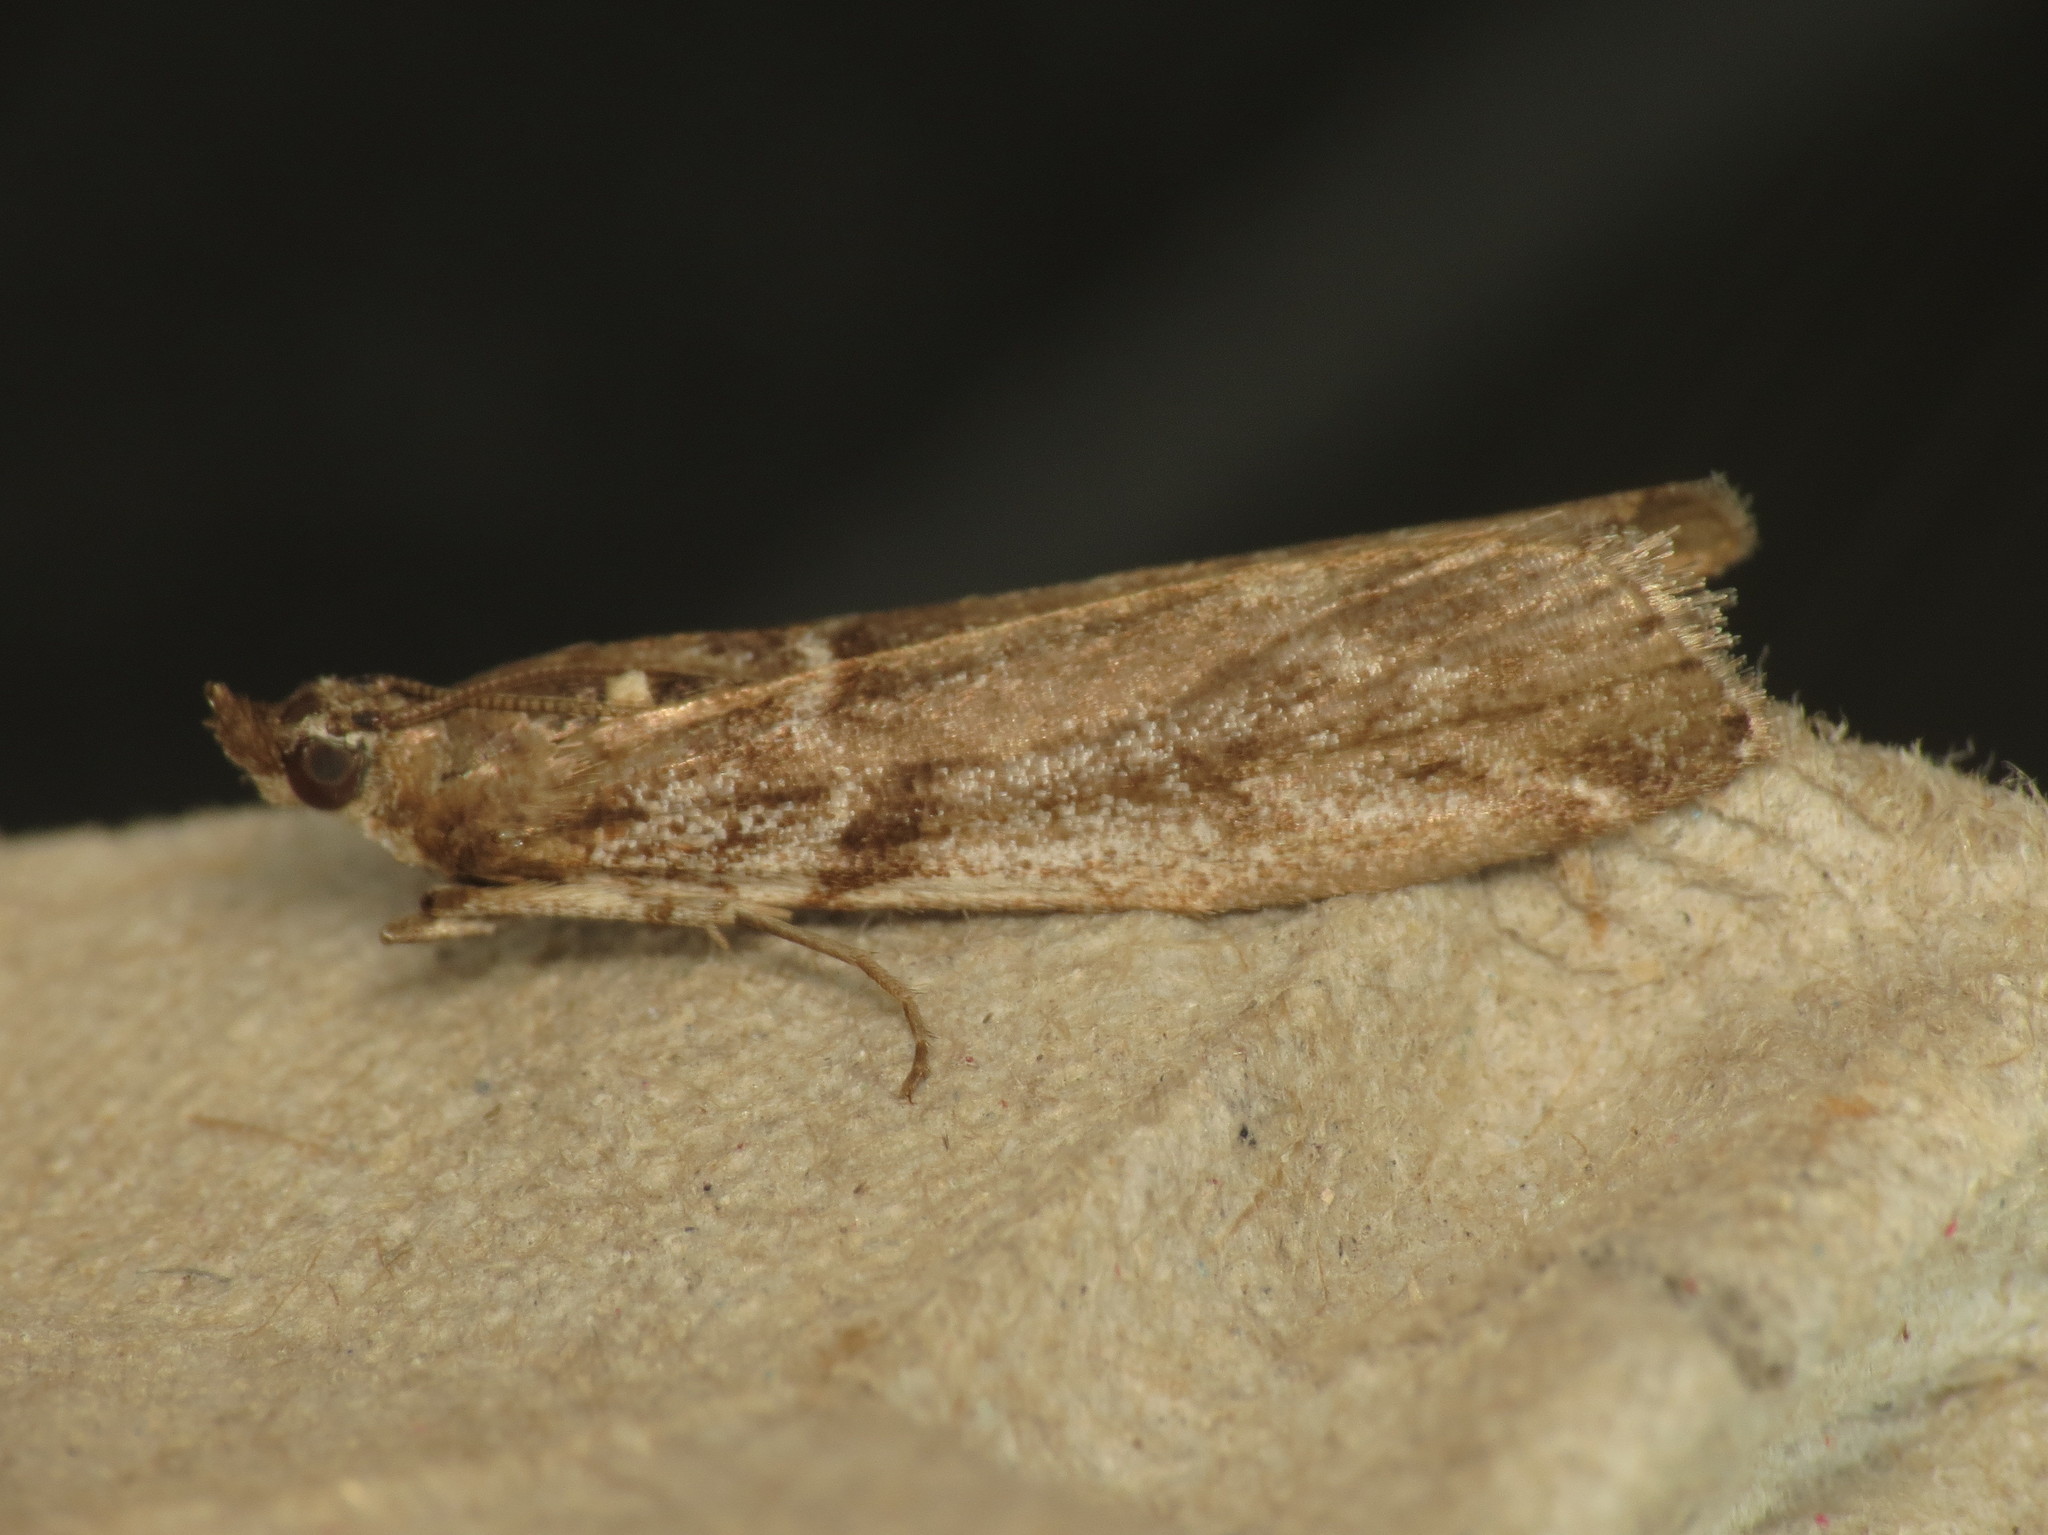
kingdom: Animalia
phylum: Arthropoda
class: Insecta
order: Lepidoptera
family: Pyralidae
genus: Zophodia
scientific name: Zophodia convolutella
